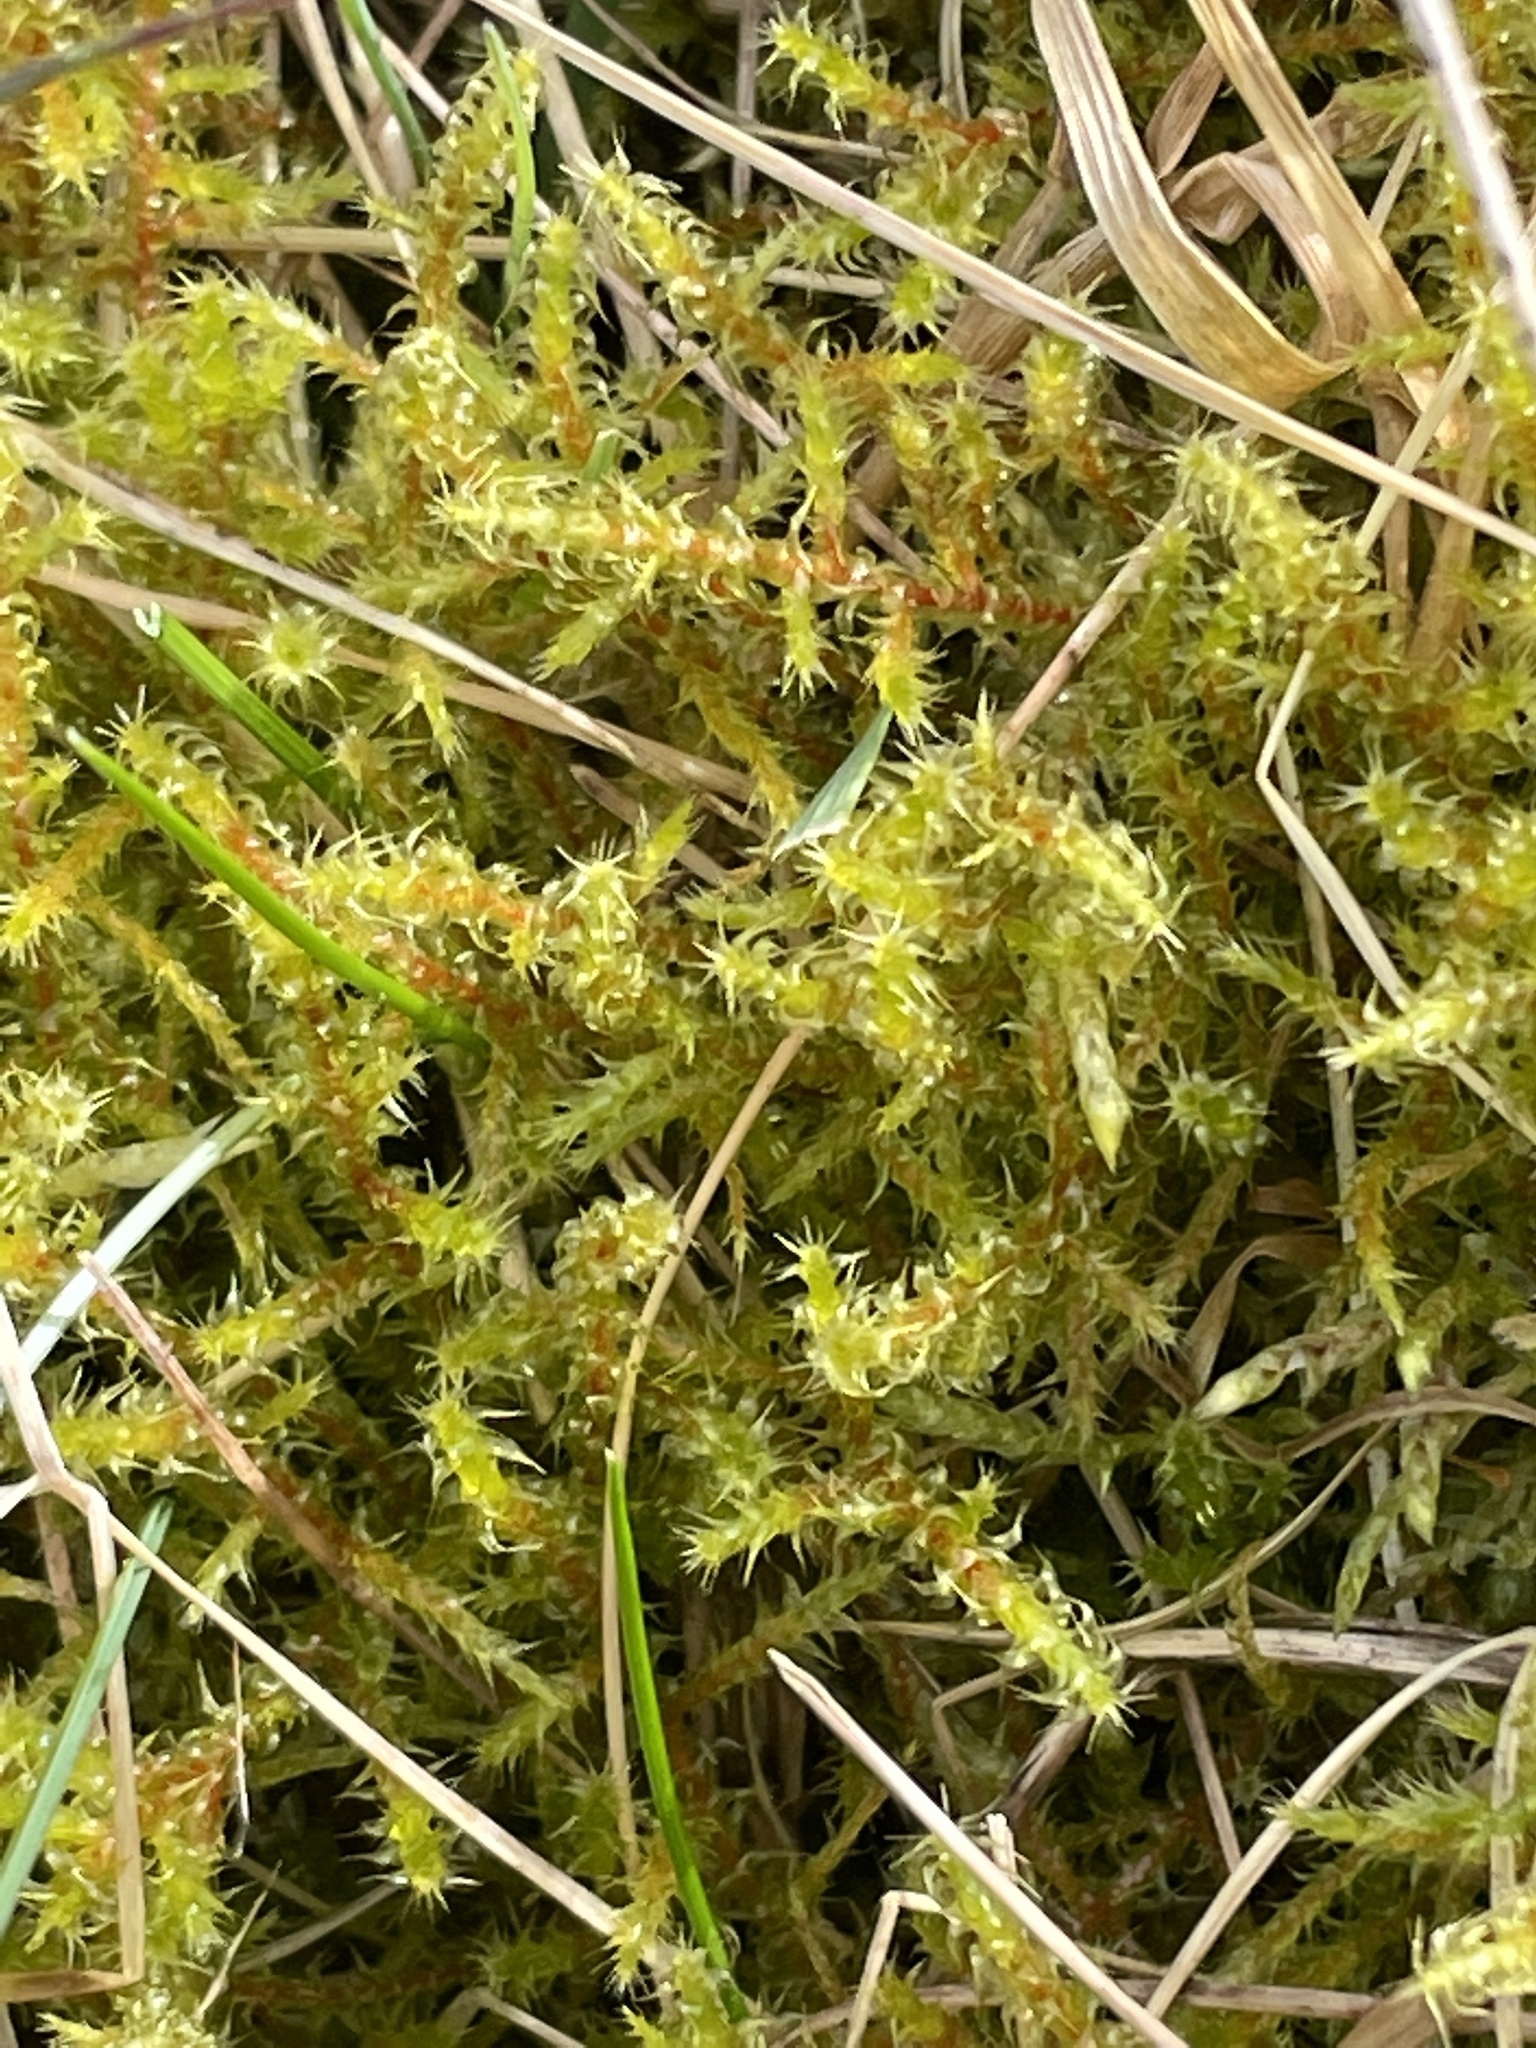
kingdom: Plantae
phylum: Bryophyta
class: Bryopsida
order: Hypnales
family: Hylocomiaceae
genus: Rhytidiadelphus
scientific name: Rhytidiadelphus squarrosus
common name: Springy turf-moss
